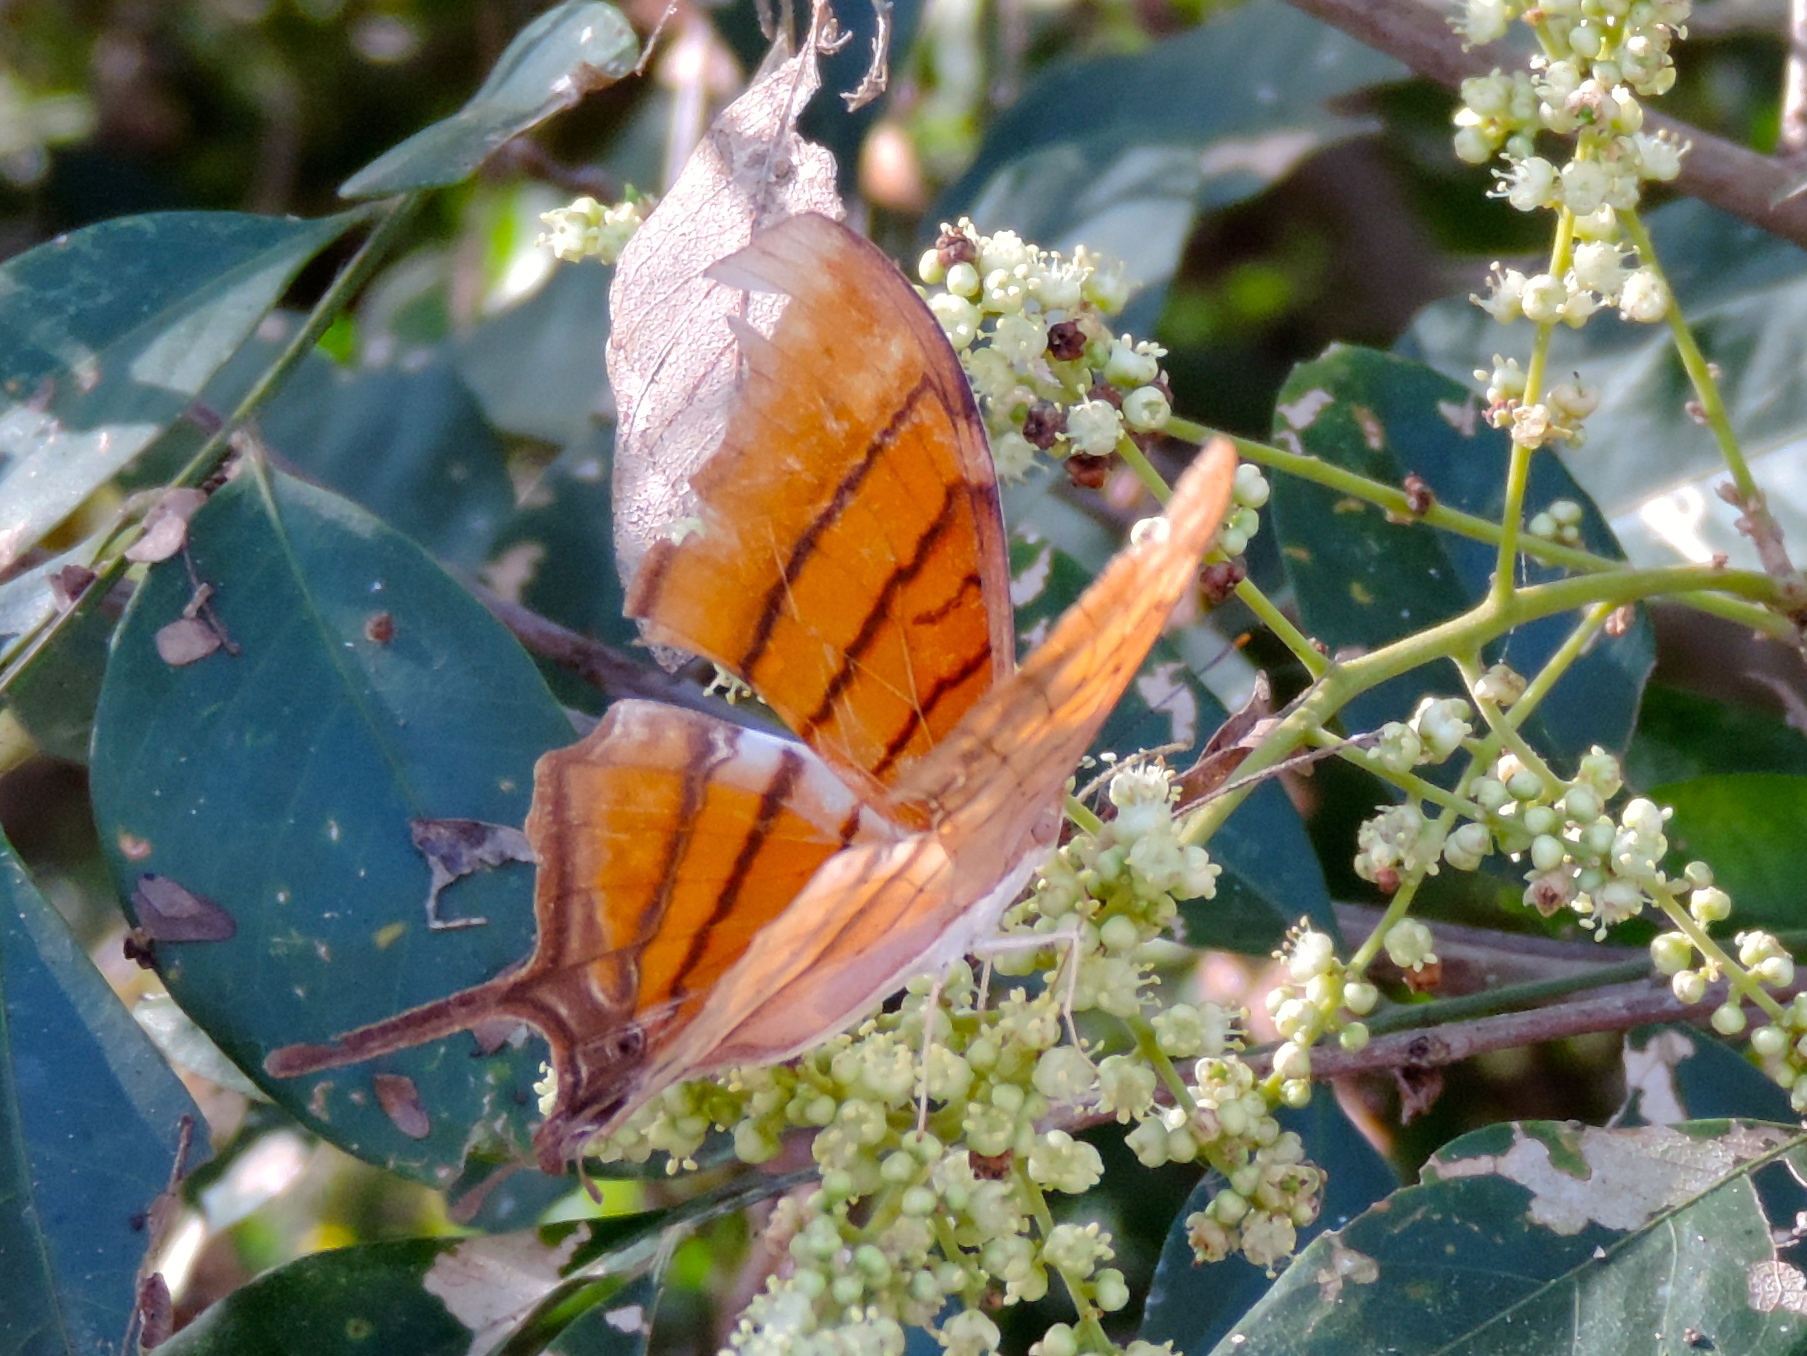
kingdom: Animalia
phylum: Arthropoda
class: Insecta
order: Lepidoptera
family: Nymphalidae
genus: Marpesia
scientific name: Marpesia petreus
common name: Red dagger wing
